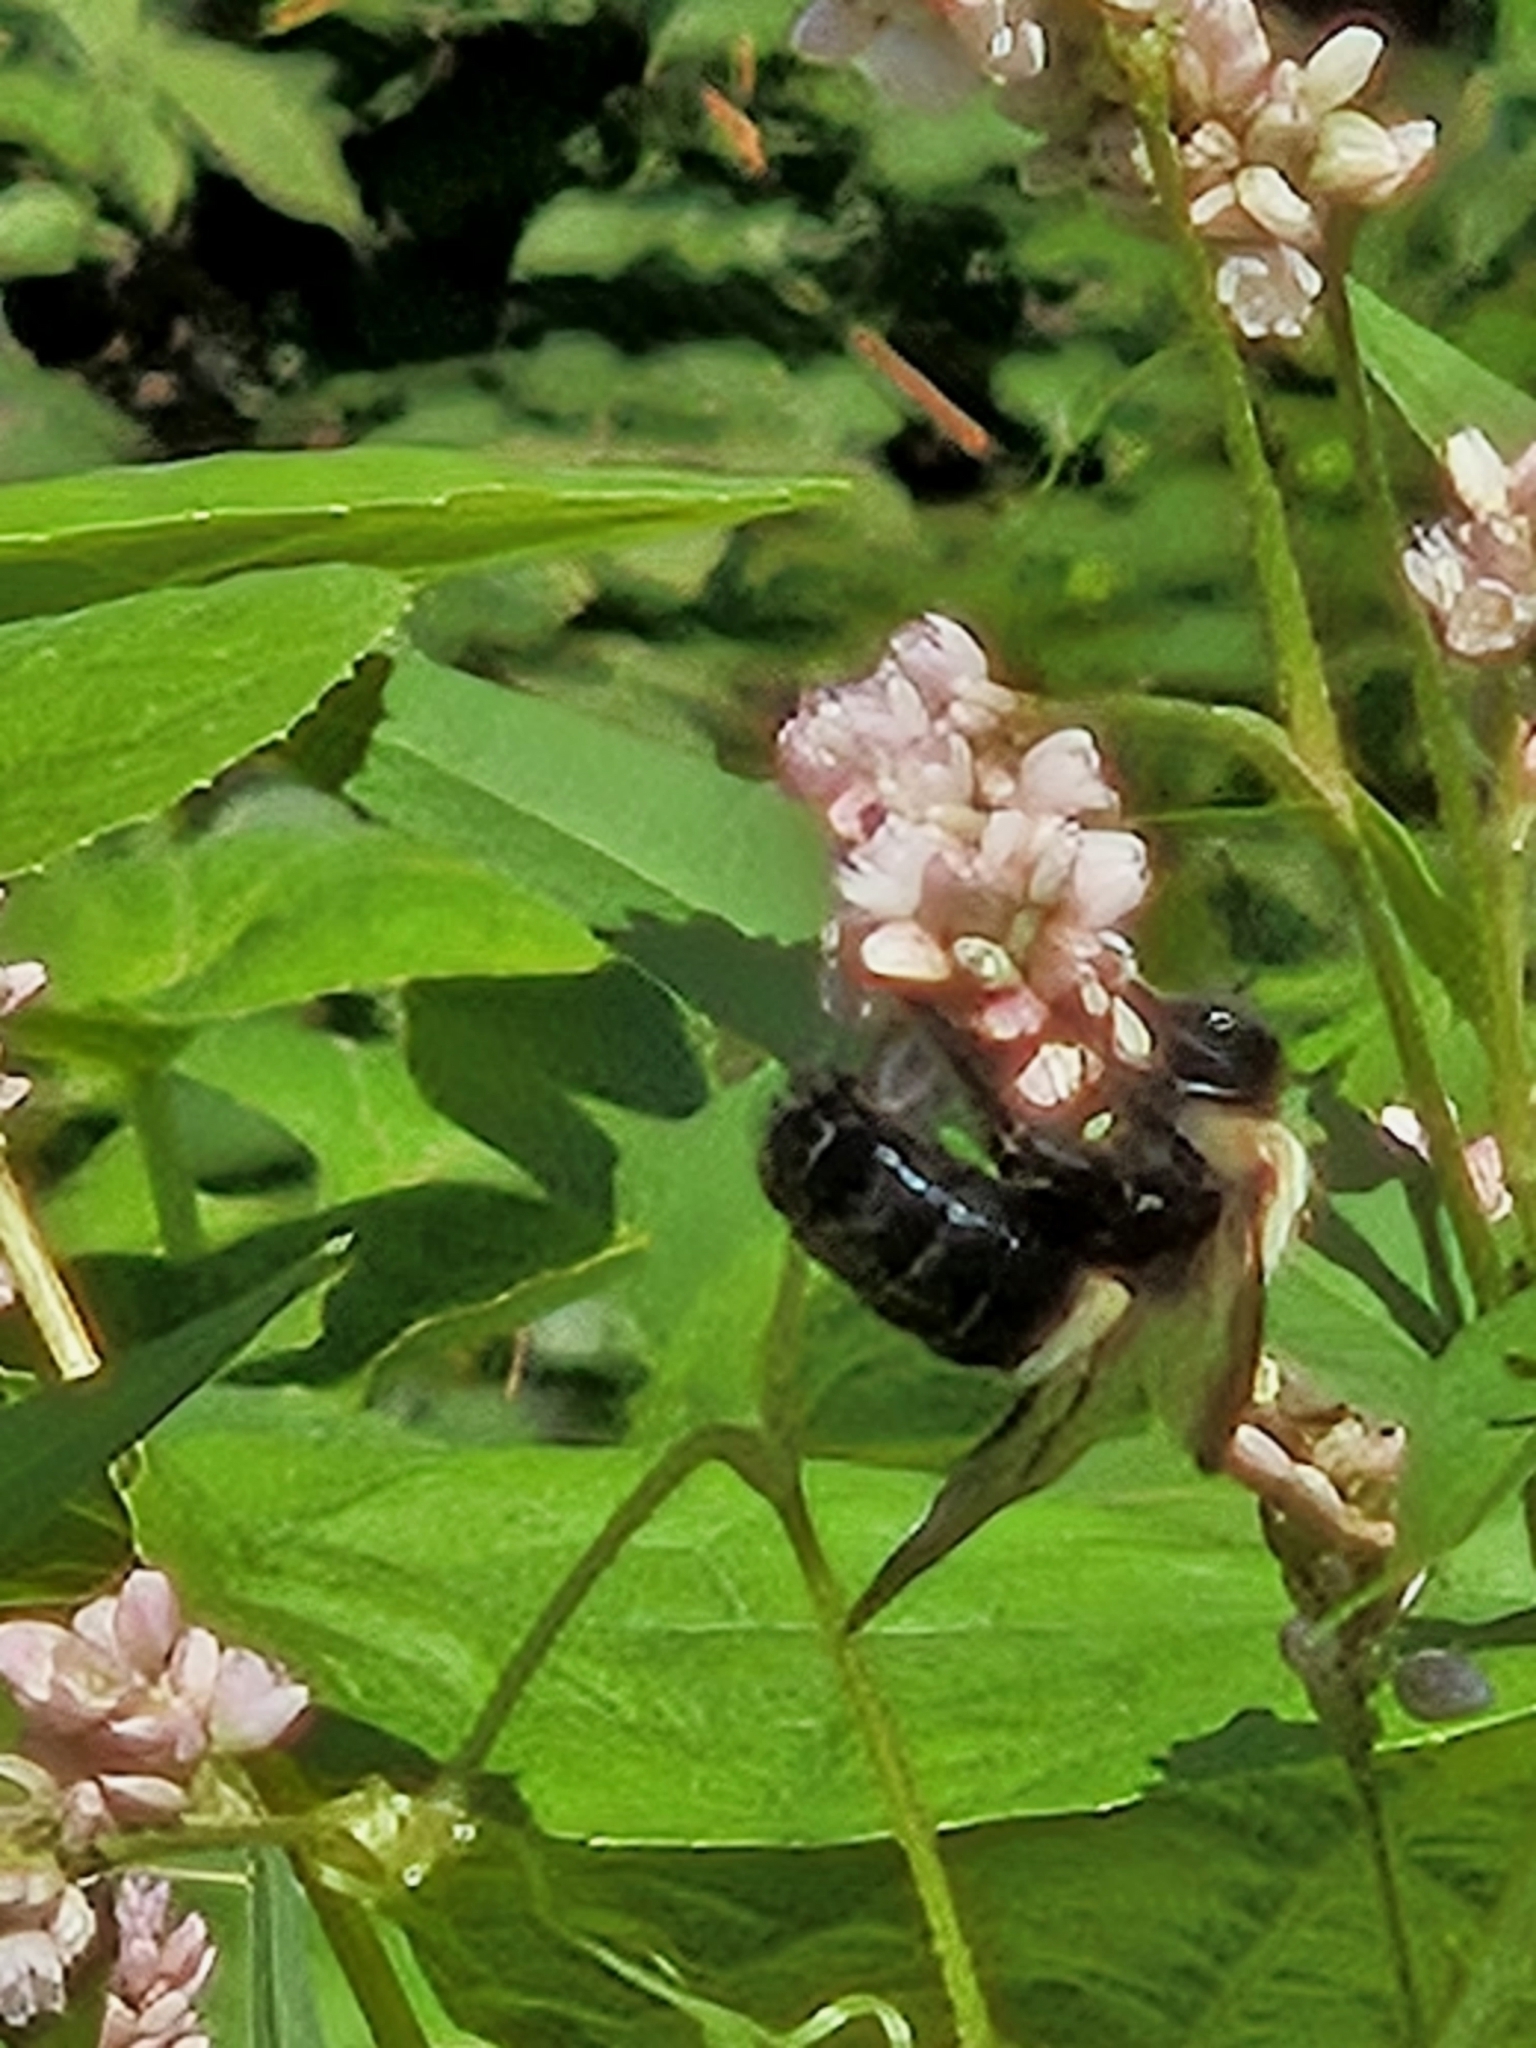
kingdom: Animalia
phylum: Arthropoda
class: Insecta
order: Hymenoptera
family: Apidae
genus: Xylocopa
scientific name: Xylocopa virginica
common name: Carpenter bee
